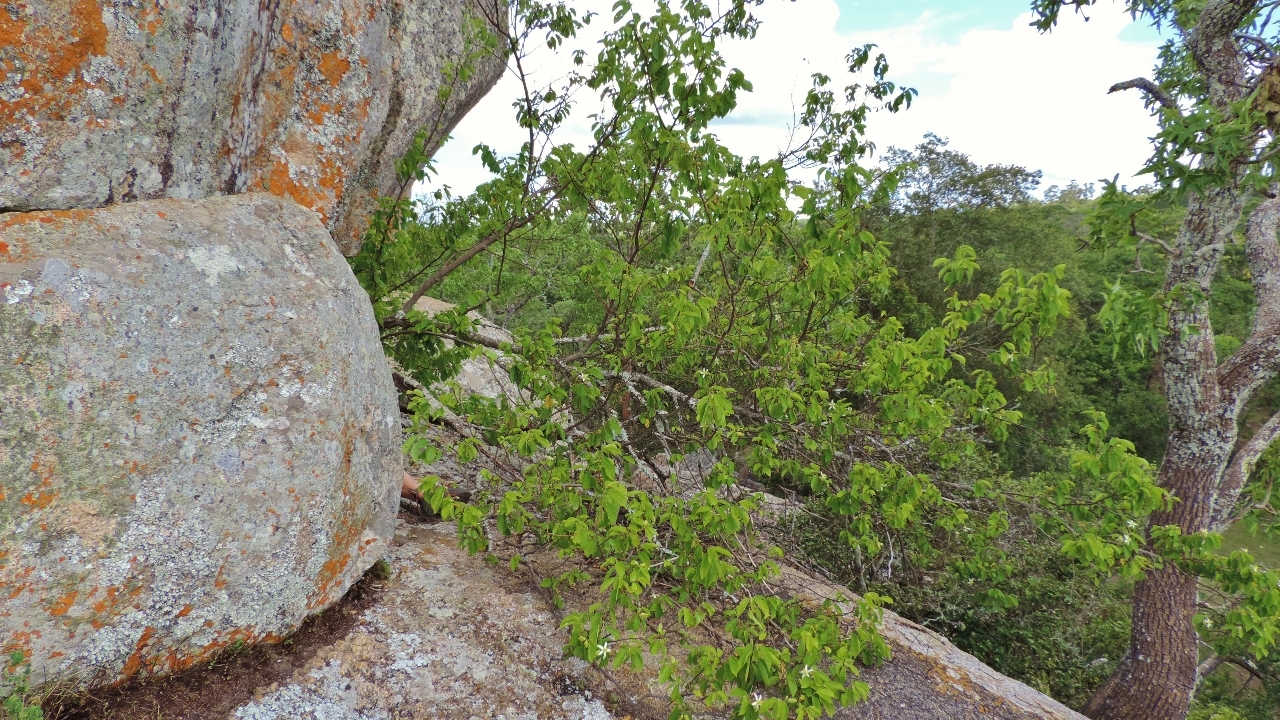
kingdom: Plantae
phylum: Tracheophyta
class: Magnoliopsida
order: Malvales
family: Malvaceae
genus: Grewia
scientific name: Grewia stolzii
